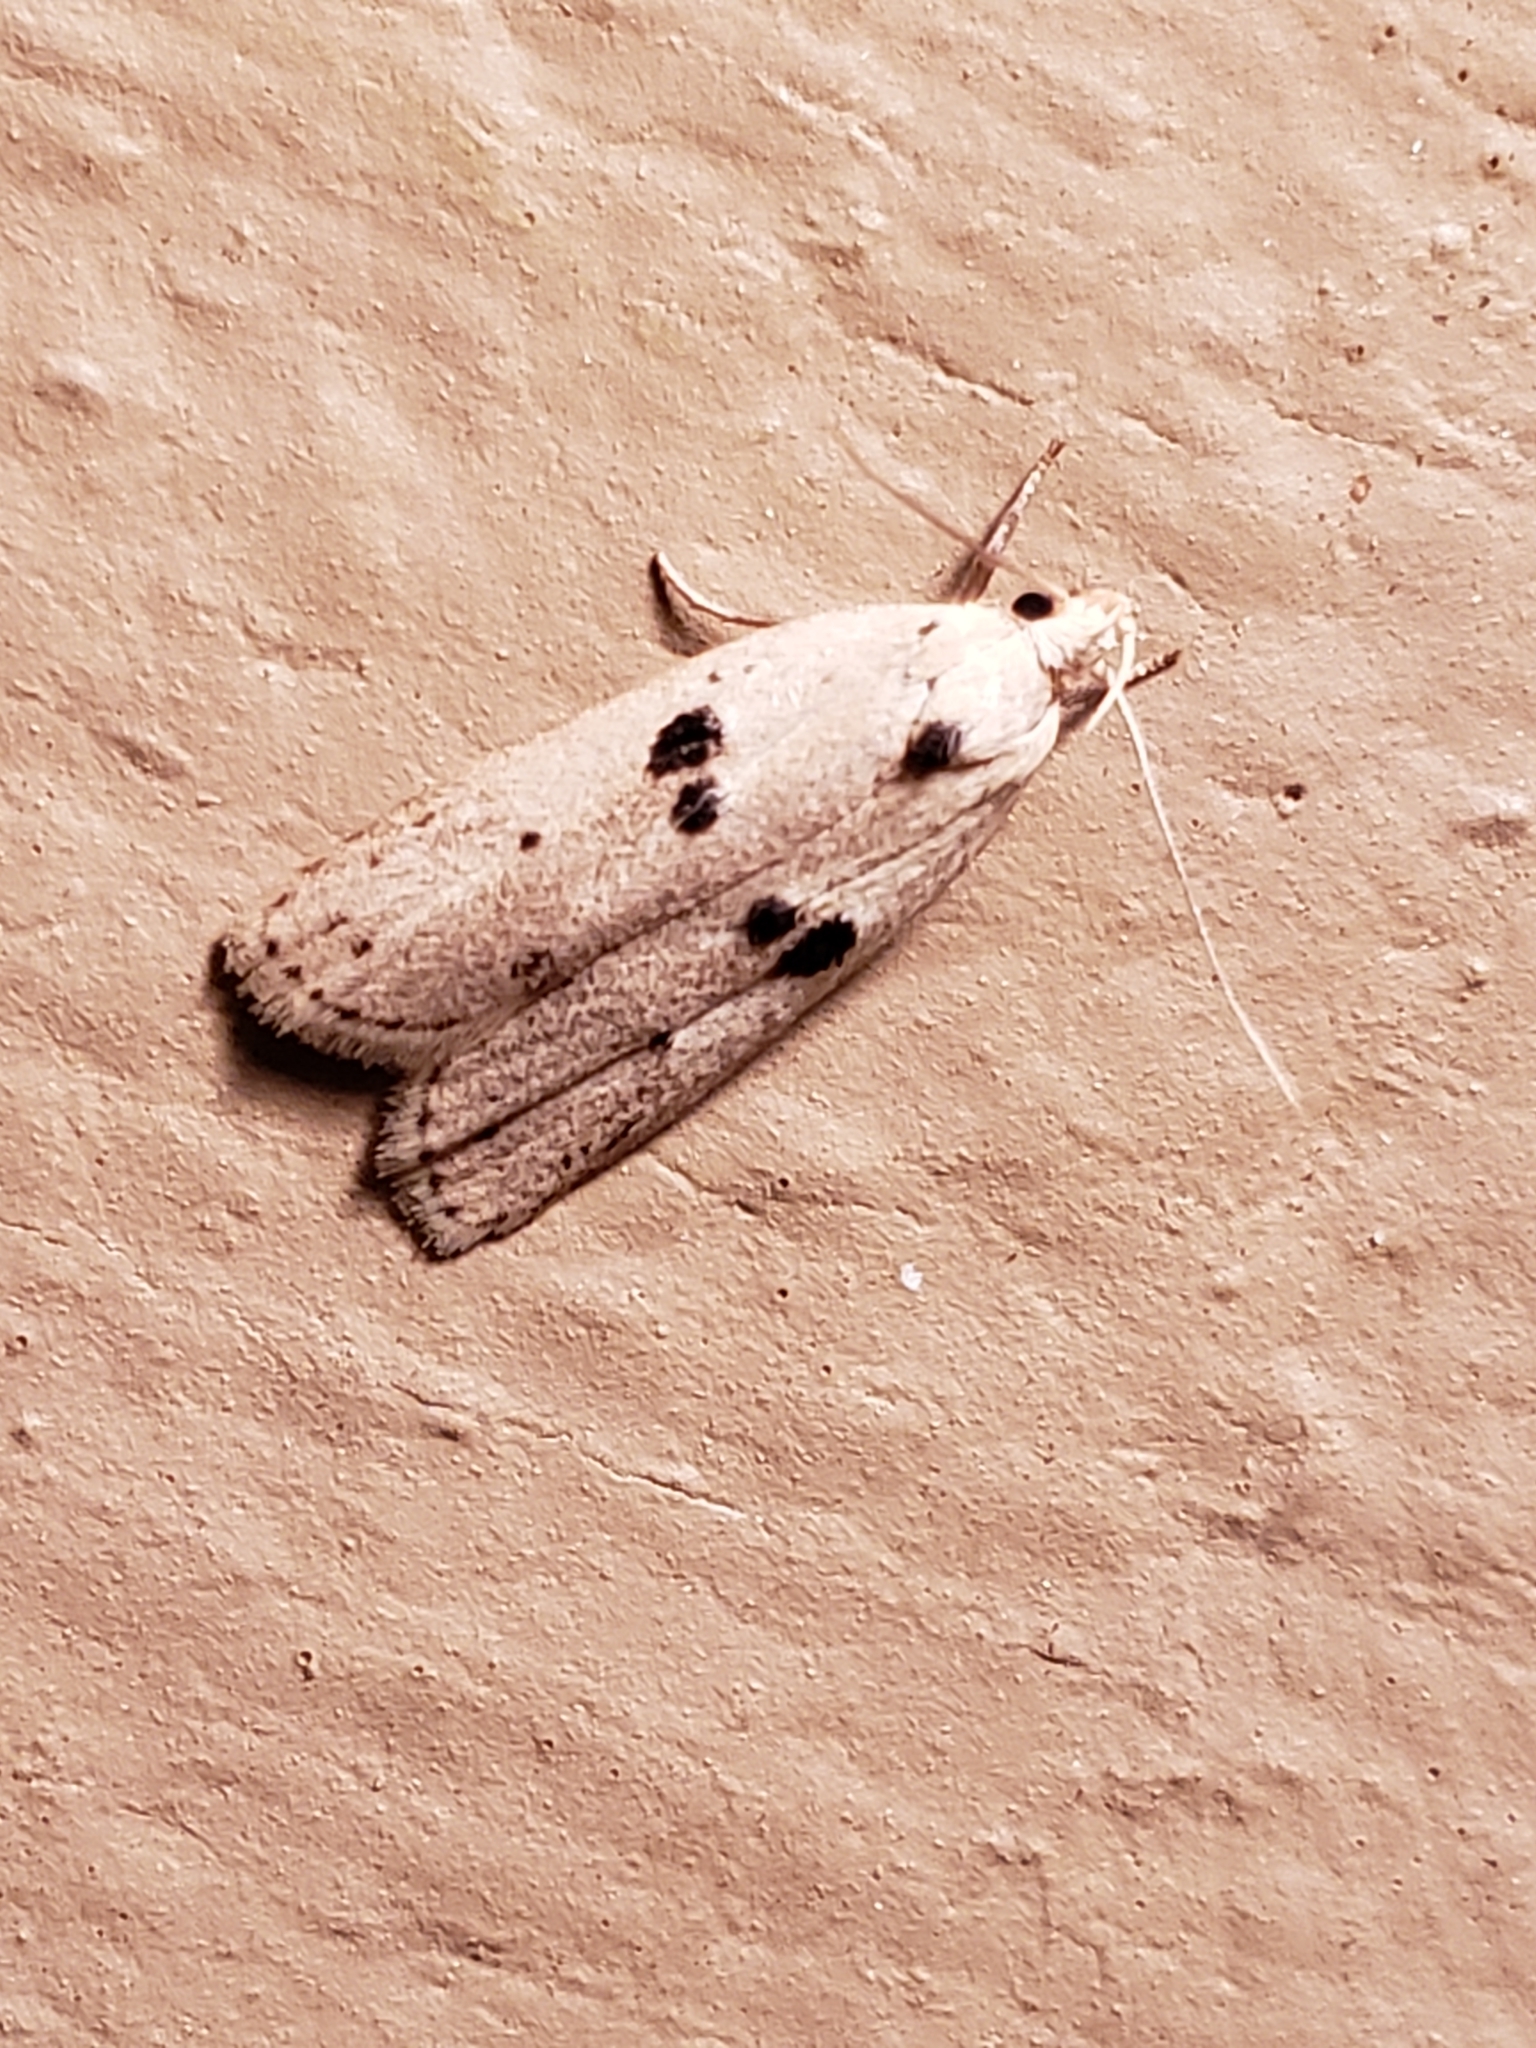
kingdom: Animalia
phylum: Arthropoda
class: Insecta
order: Lepidoptera
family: Peleopodidae
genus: Scythropiodes
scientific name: Scythropiodes issikii
